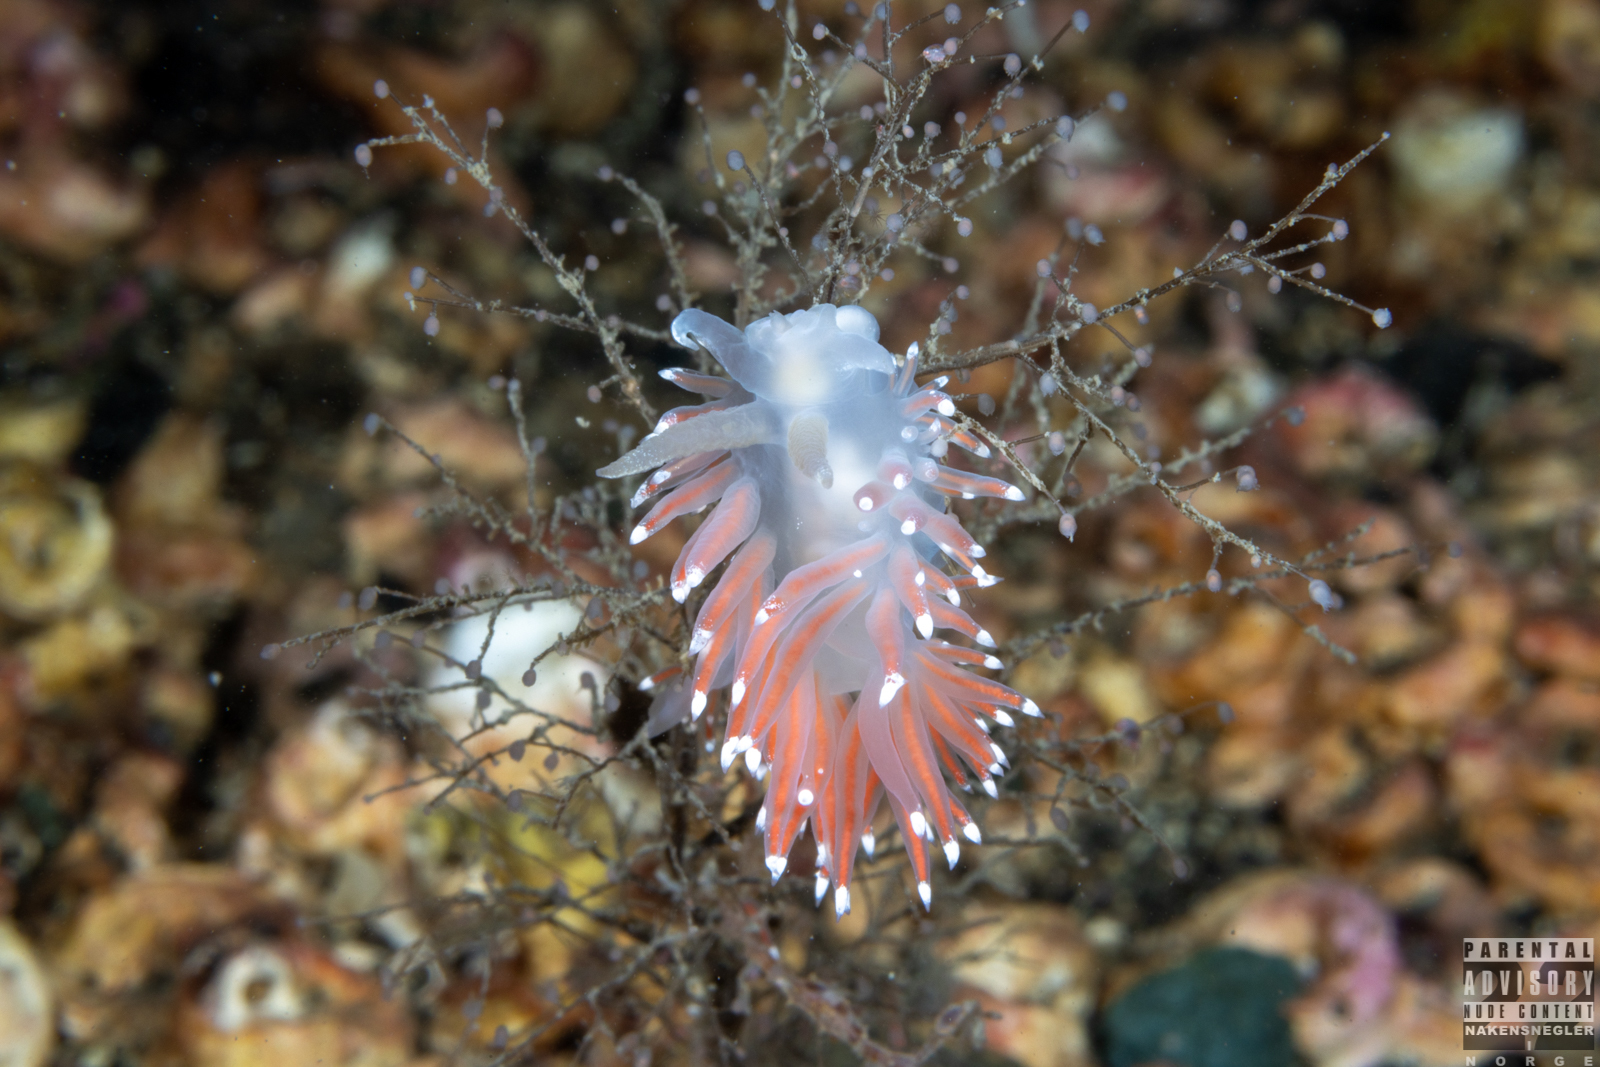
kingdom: Animalia
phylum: Mollusca
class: Gastropoda
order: Nudibranchia
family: Coryphellidae
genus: Coryphella
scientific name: Coryphella nobilis
